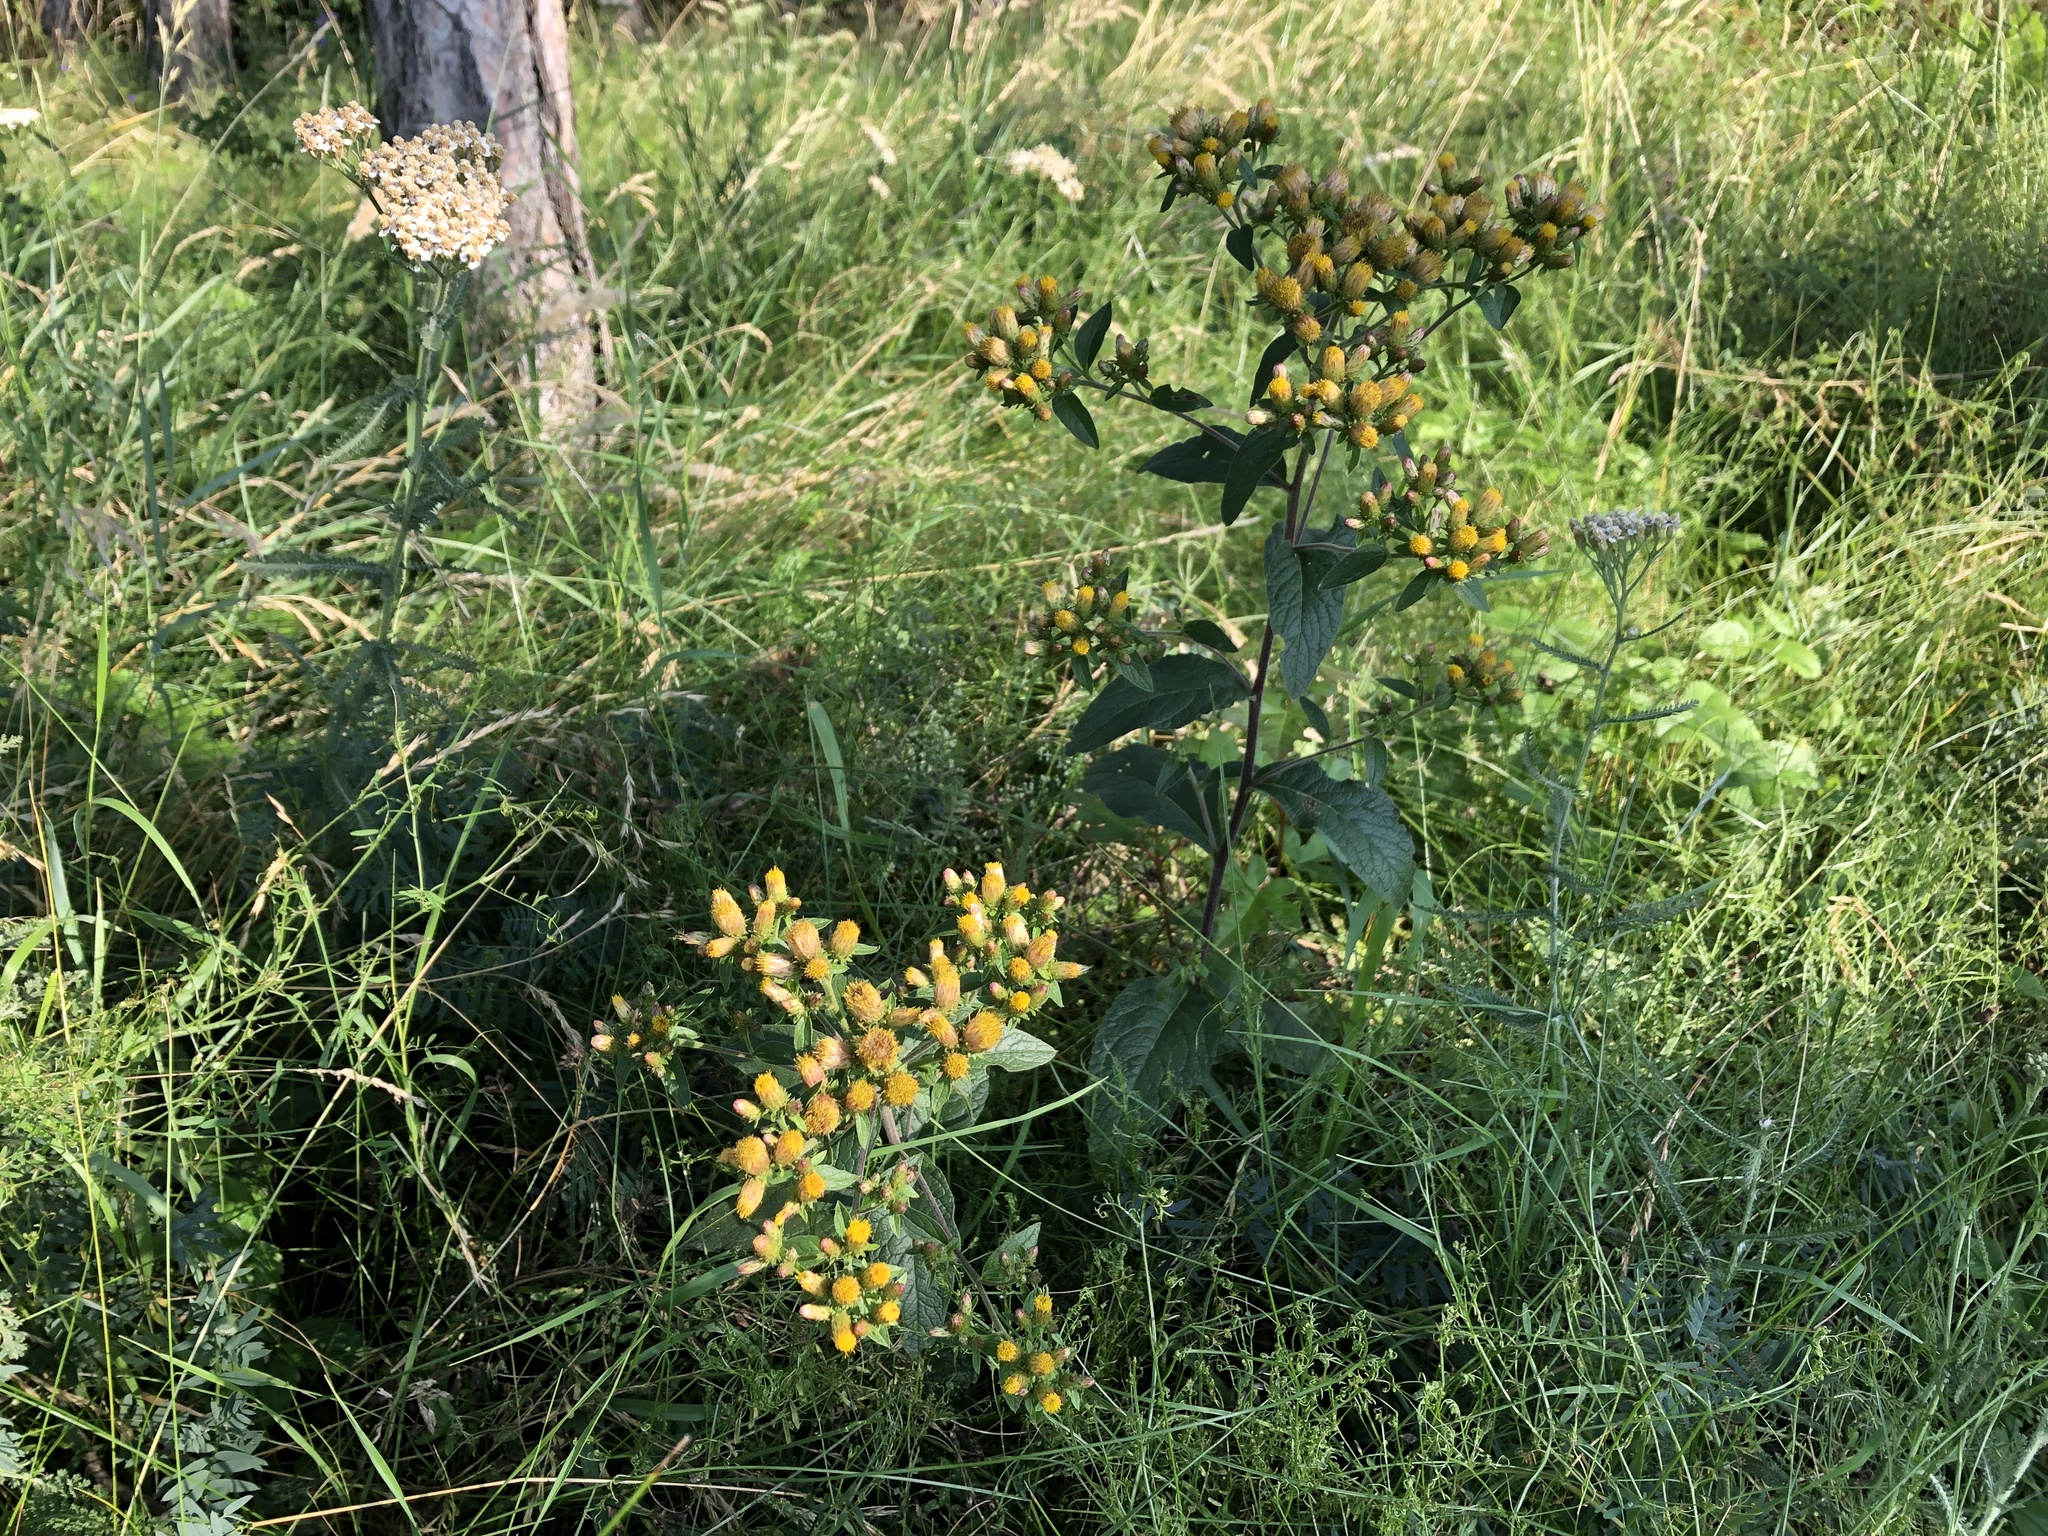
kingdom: Plantae
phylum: Tracheophyta
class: Magnoliopsida
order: Asterales
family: Asteraceae
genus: Pentanema
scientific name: Pentanema squarrosum
